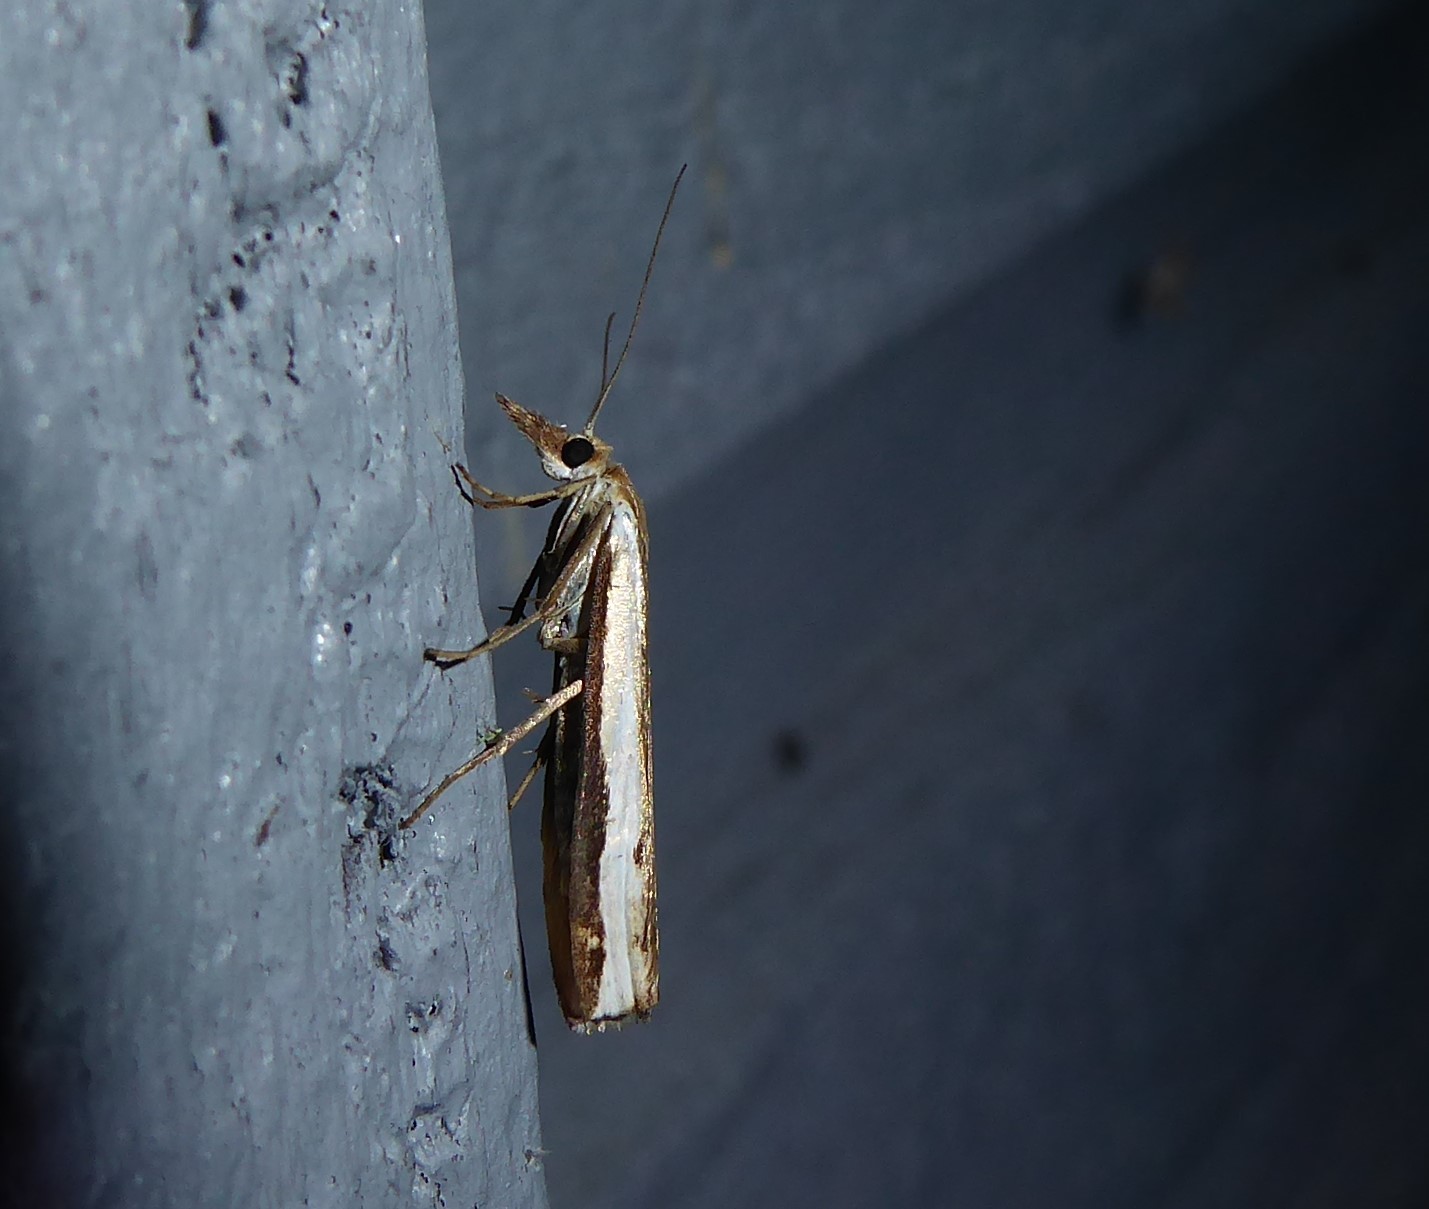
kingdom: Animalia
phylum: Arthropoda
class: Insecta
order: Lepidoptera
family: Crambidae
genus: Orocrambus
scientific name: Orocrambus flexuosellus
